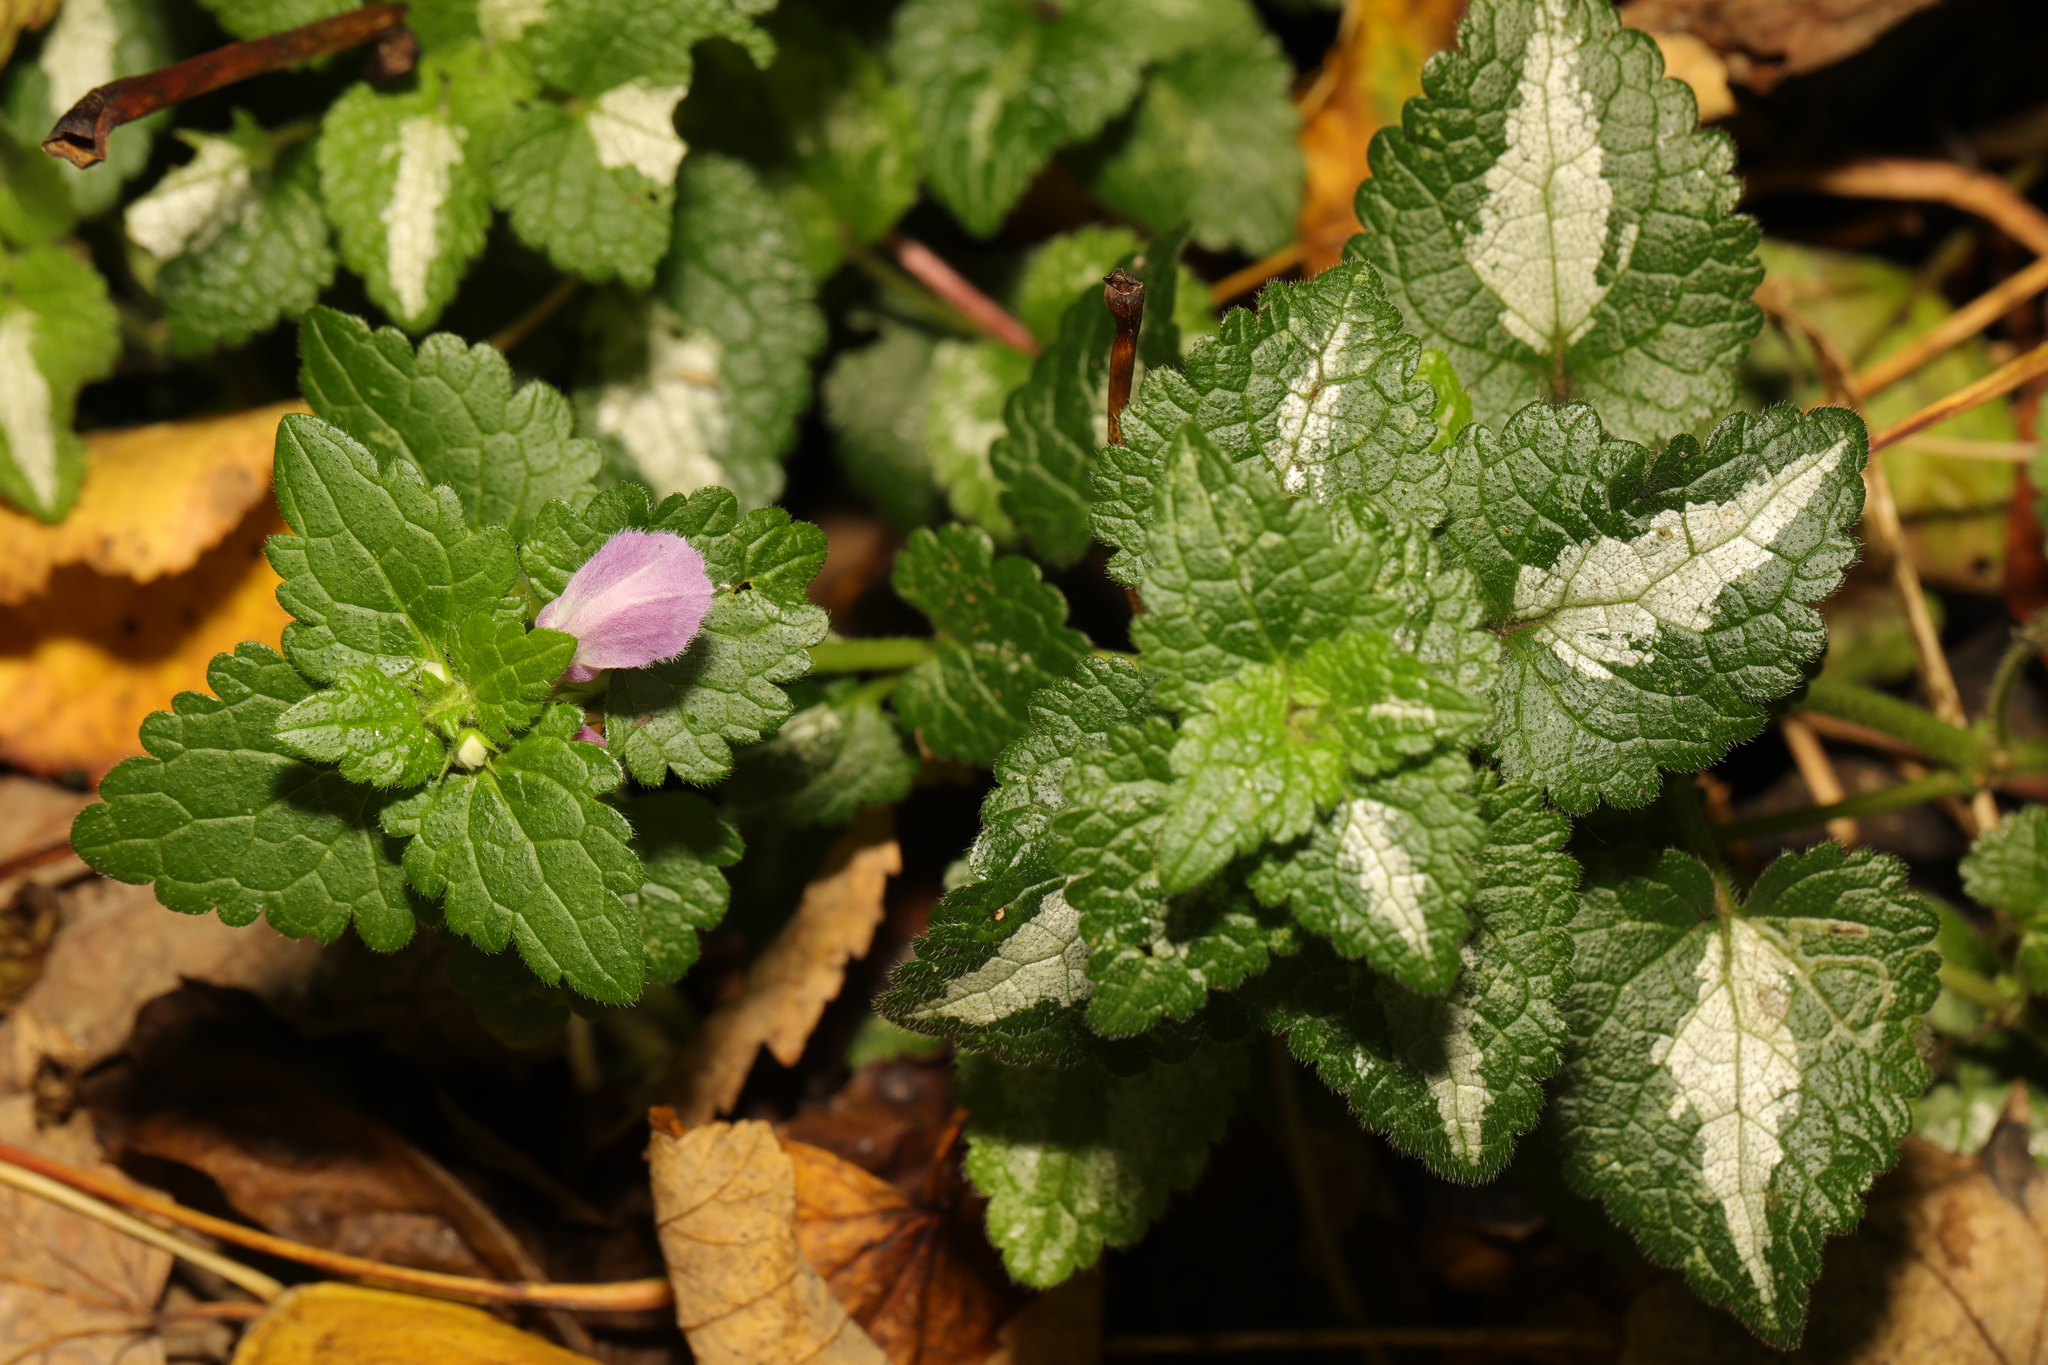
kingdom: Plantae
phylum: Tracheophyta
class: Magnoliopsida
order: Lamiales
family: Lamiaceae
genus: Lamium
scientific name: Lamium maculatum
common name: Spotted dead-nettle
